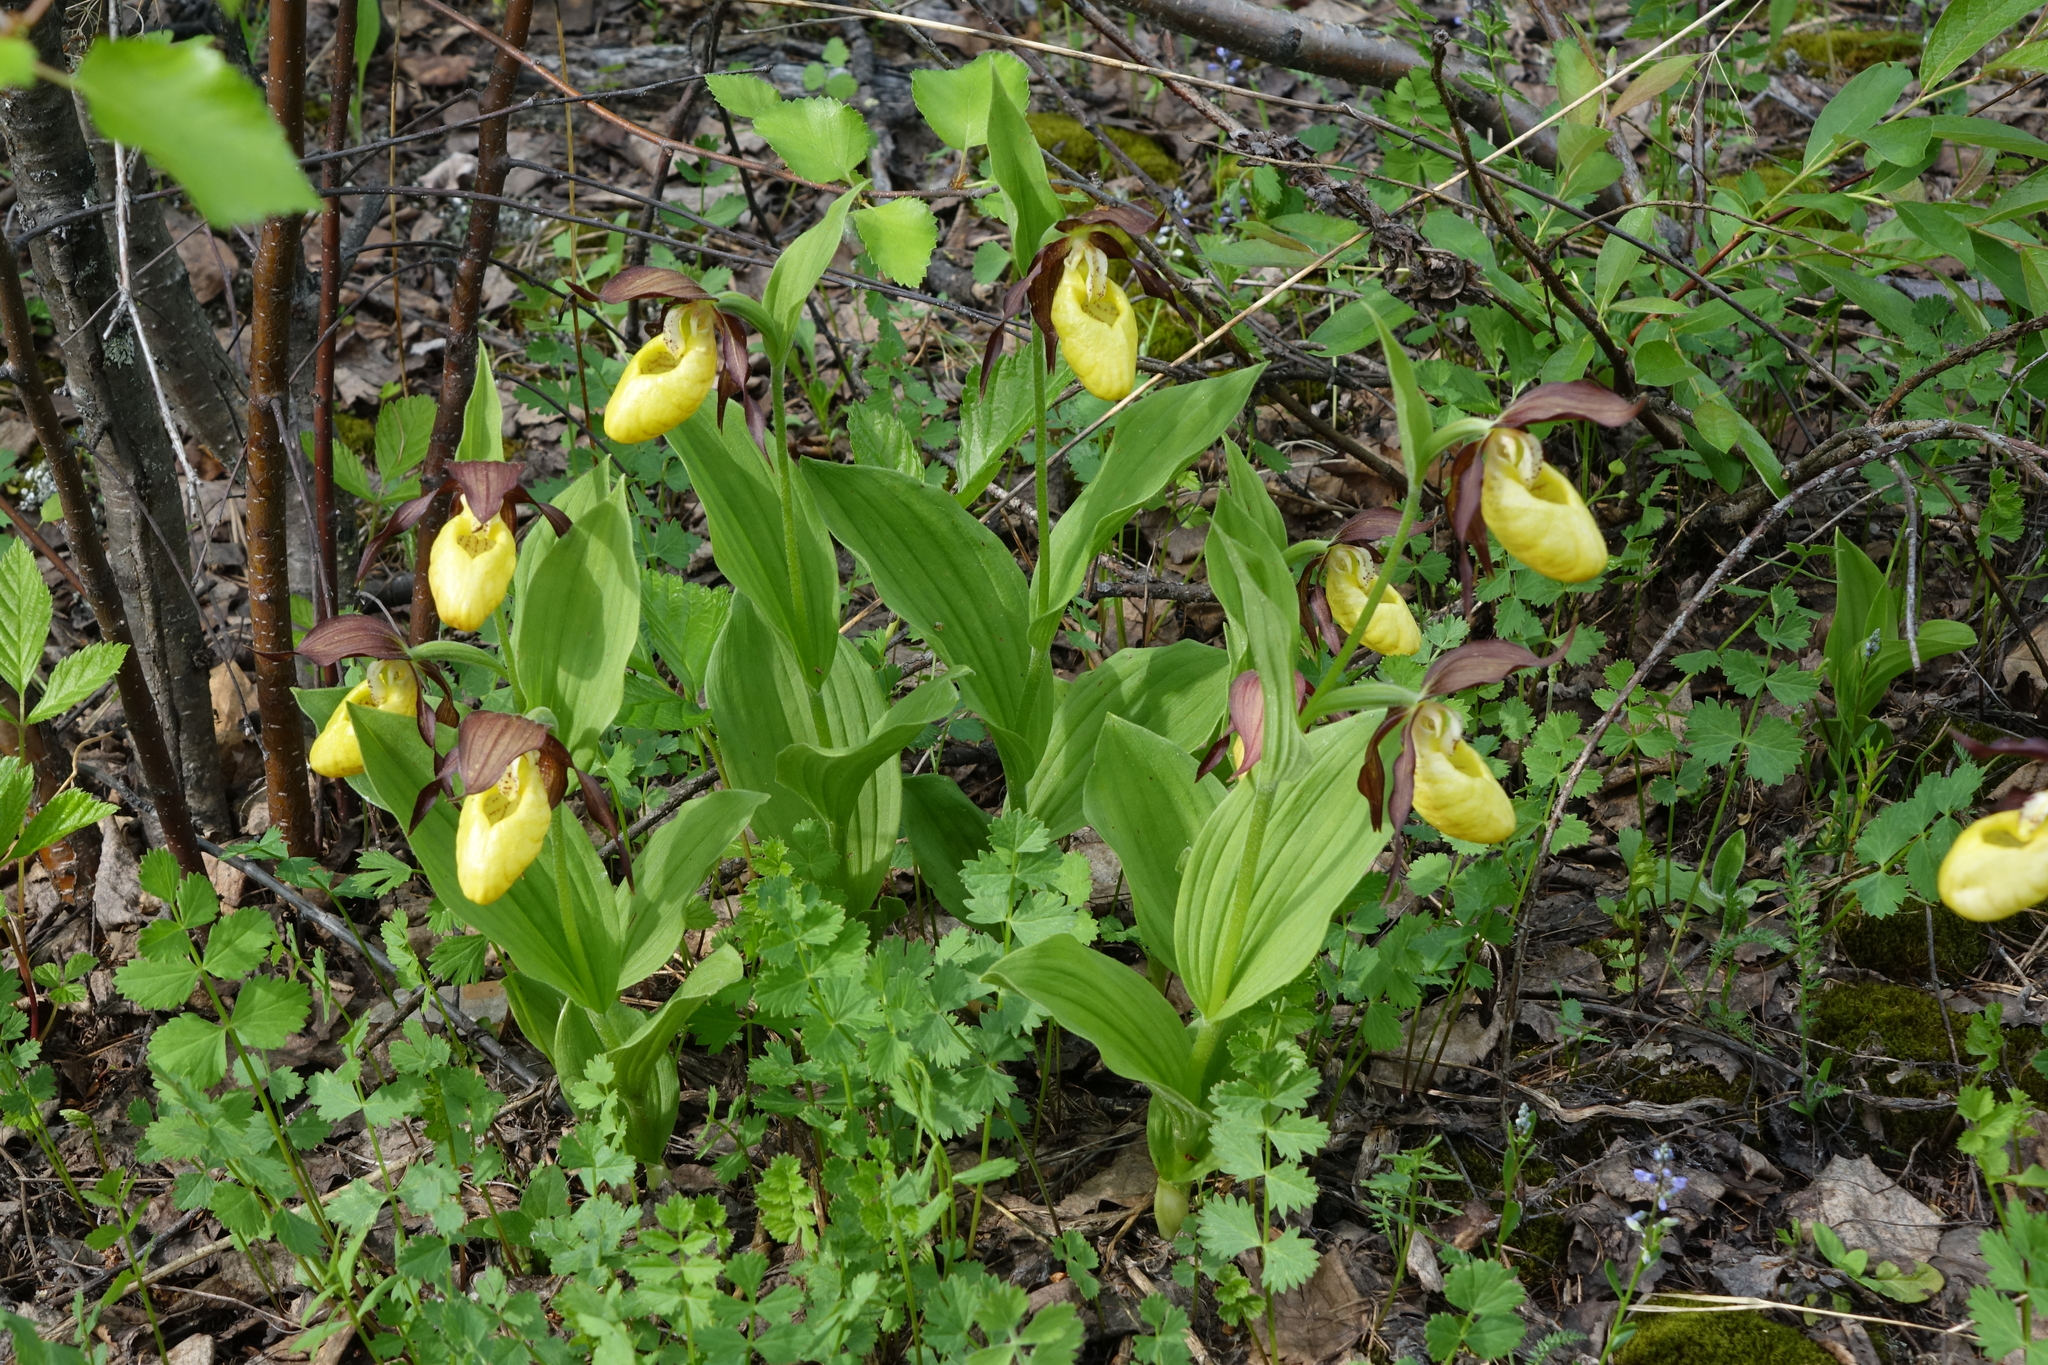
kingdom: Plantae
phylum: Tracheophyta
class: Liliopsida
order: Asparagales
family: Orchidaceae
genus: Cypripedium
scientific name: Cypripedium calceolus
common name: Lady's-slipper
